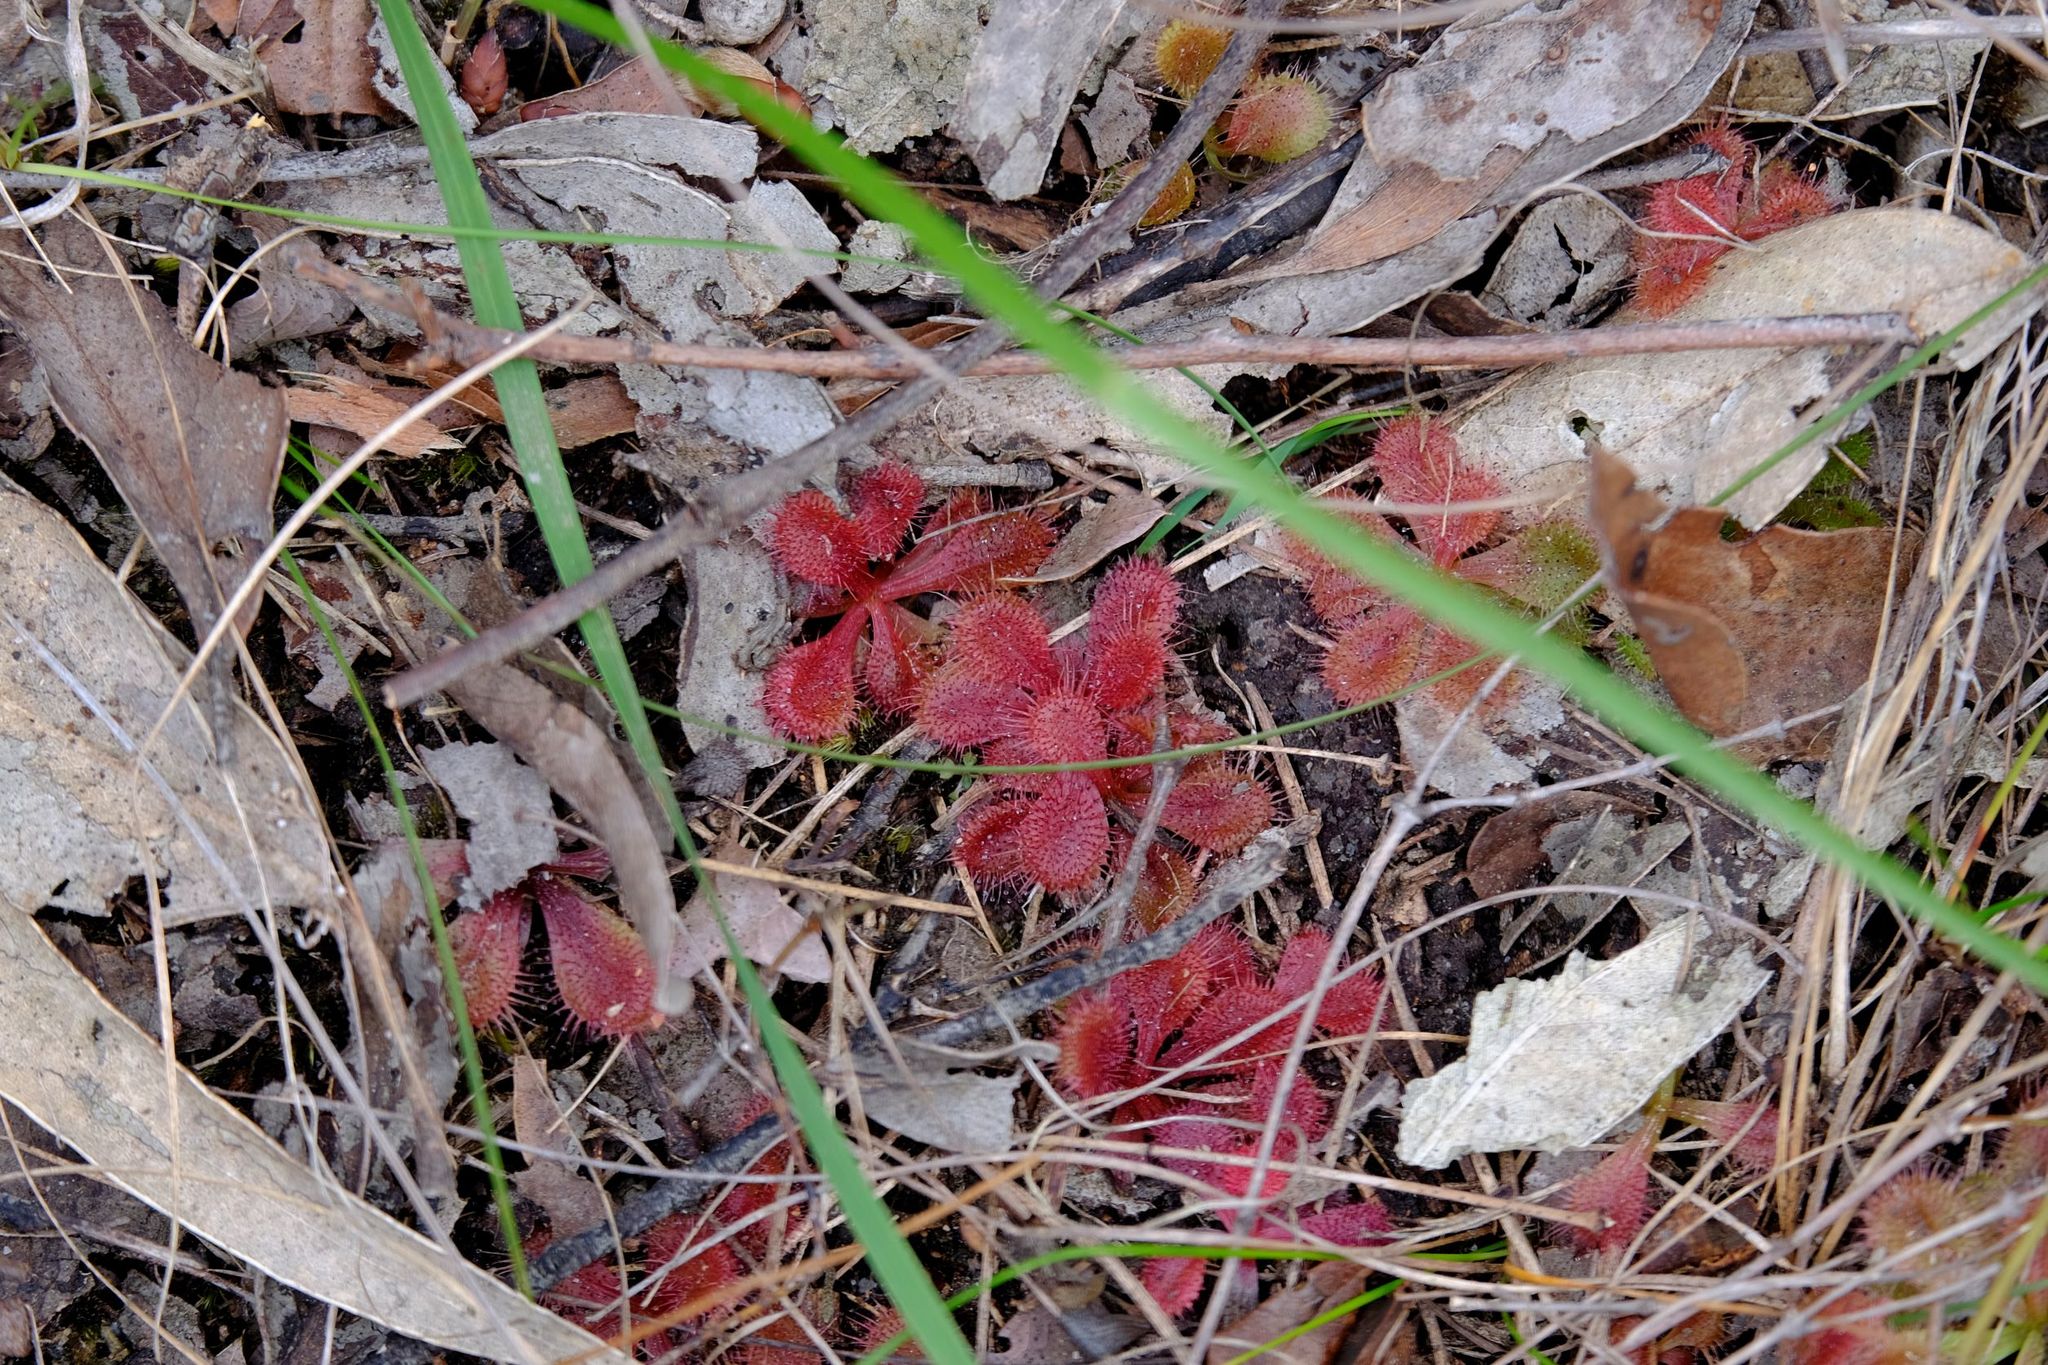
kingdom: Plantae
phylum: Tracheophyta
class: Magnoliopsida
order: Caryophyllales
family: Droseraceae
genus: Drosera
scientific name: Drosera aberrans
